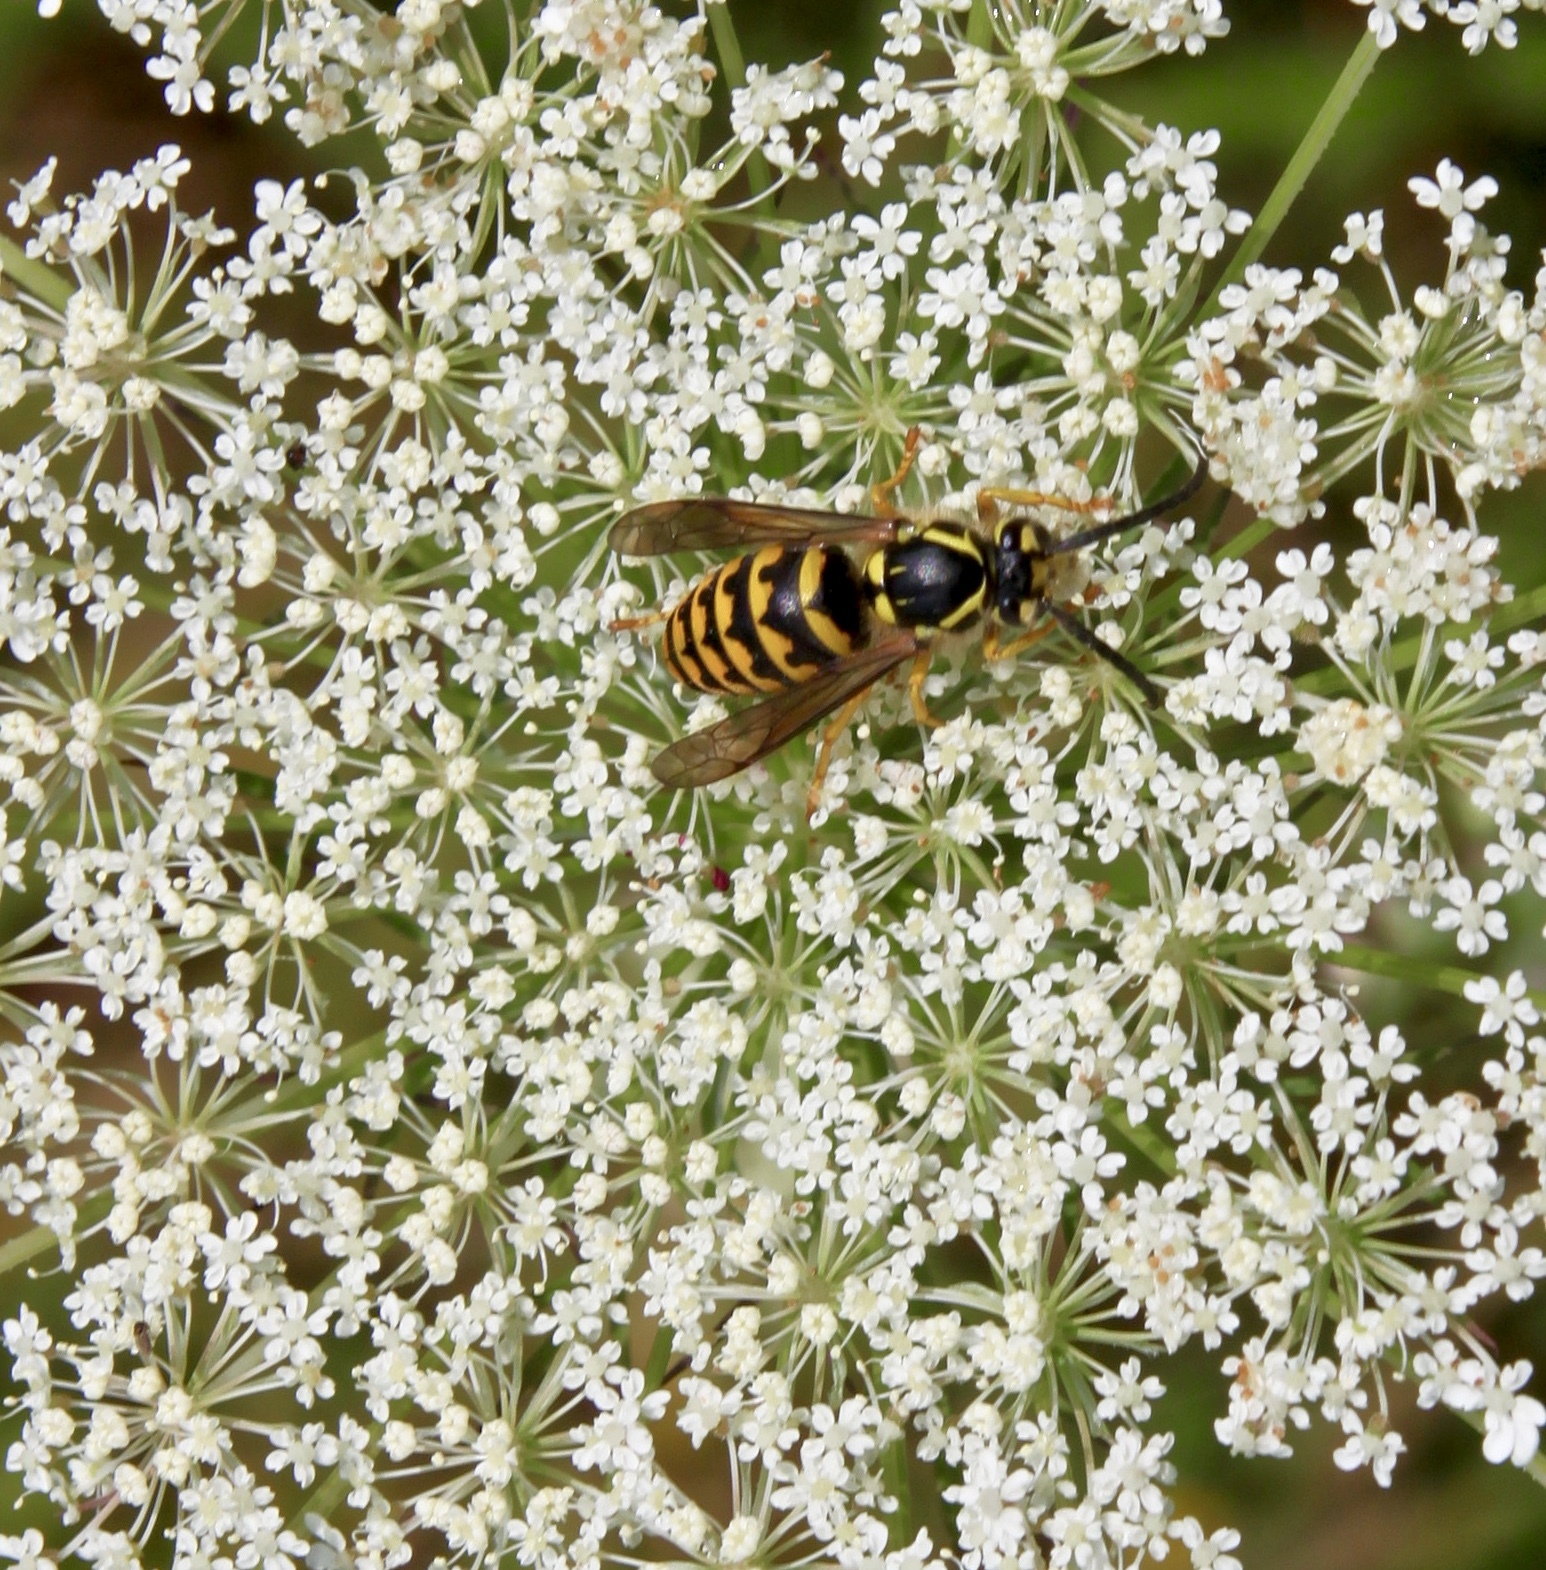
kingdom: Animalia
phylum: Arthropoda
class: Insecta
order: Hymenoptera
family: Vespidae
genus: Dolichovespula
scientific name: Dolichovespula arenaria
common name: Aerial yellowjacket
